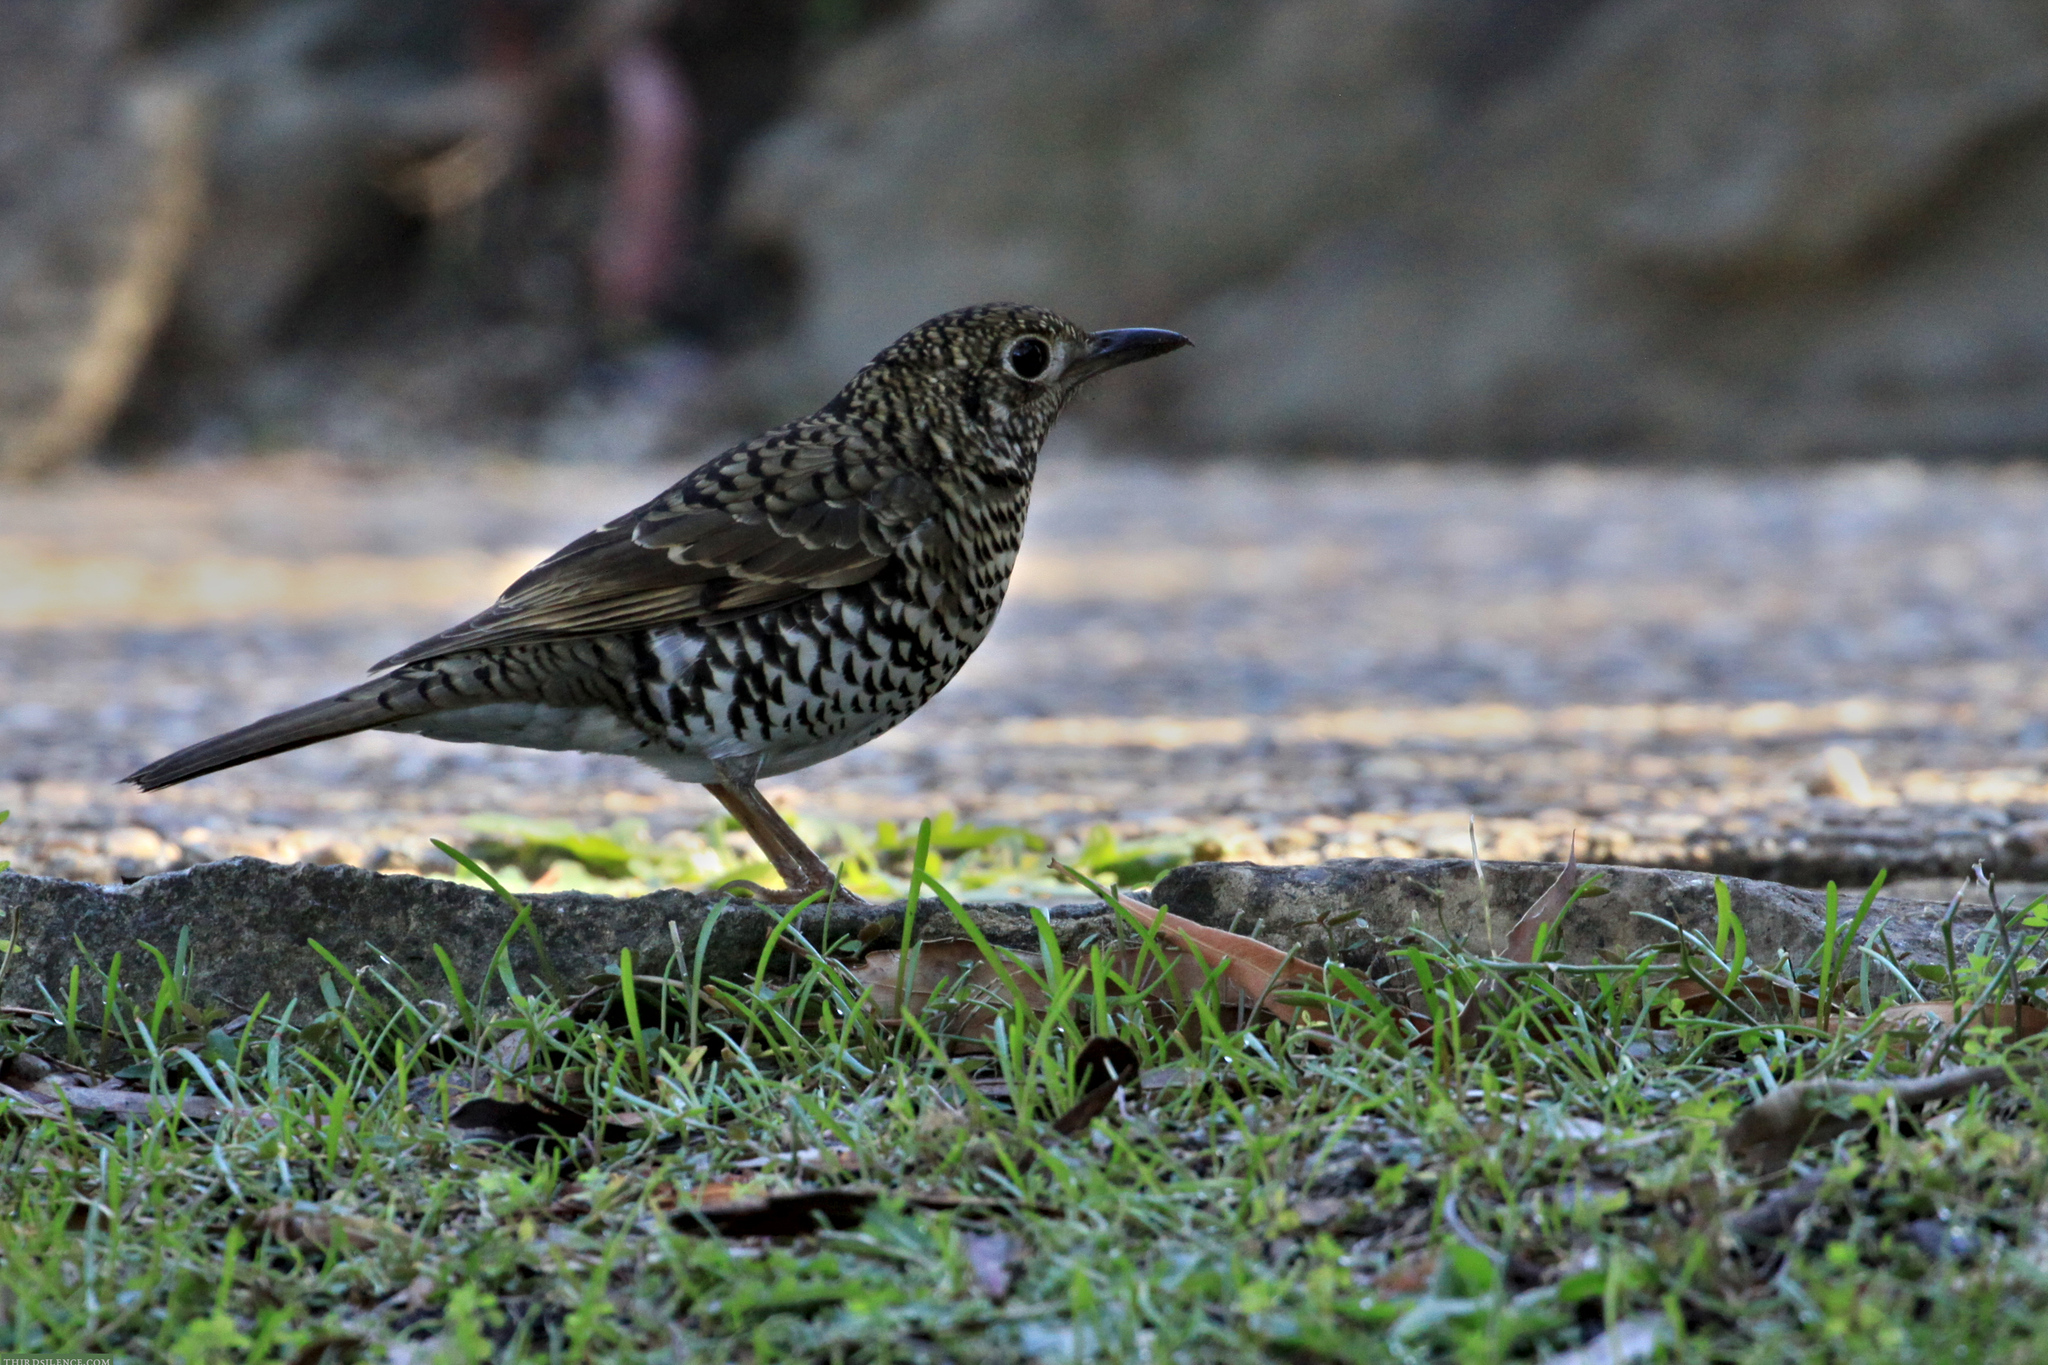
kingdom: Animalia
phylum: Chordata
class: Aves
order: Passeriformes
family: Turdidae
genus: Zoothera
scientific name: Zoothera lunulata
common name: Bassian thrush
